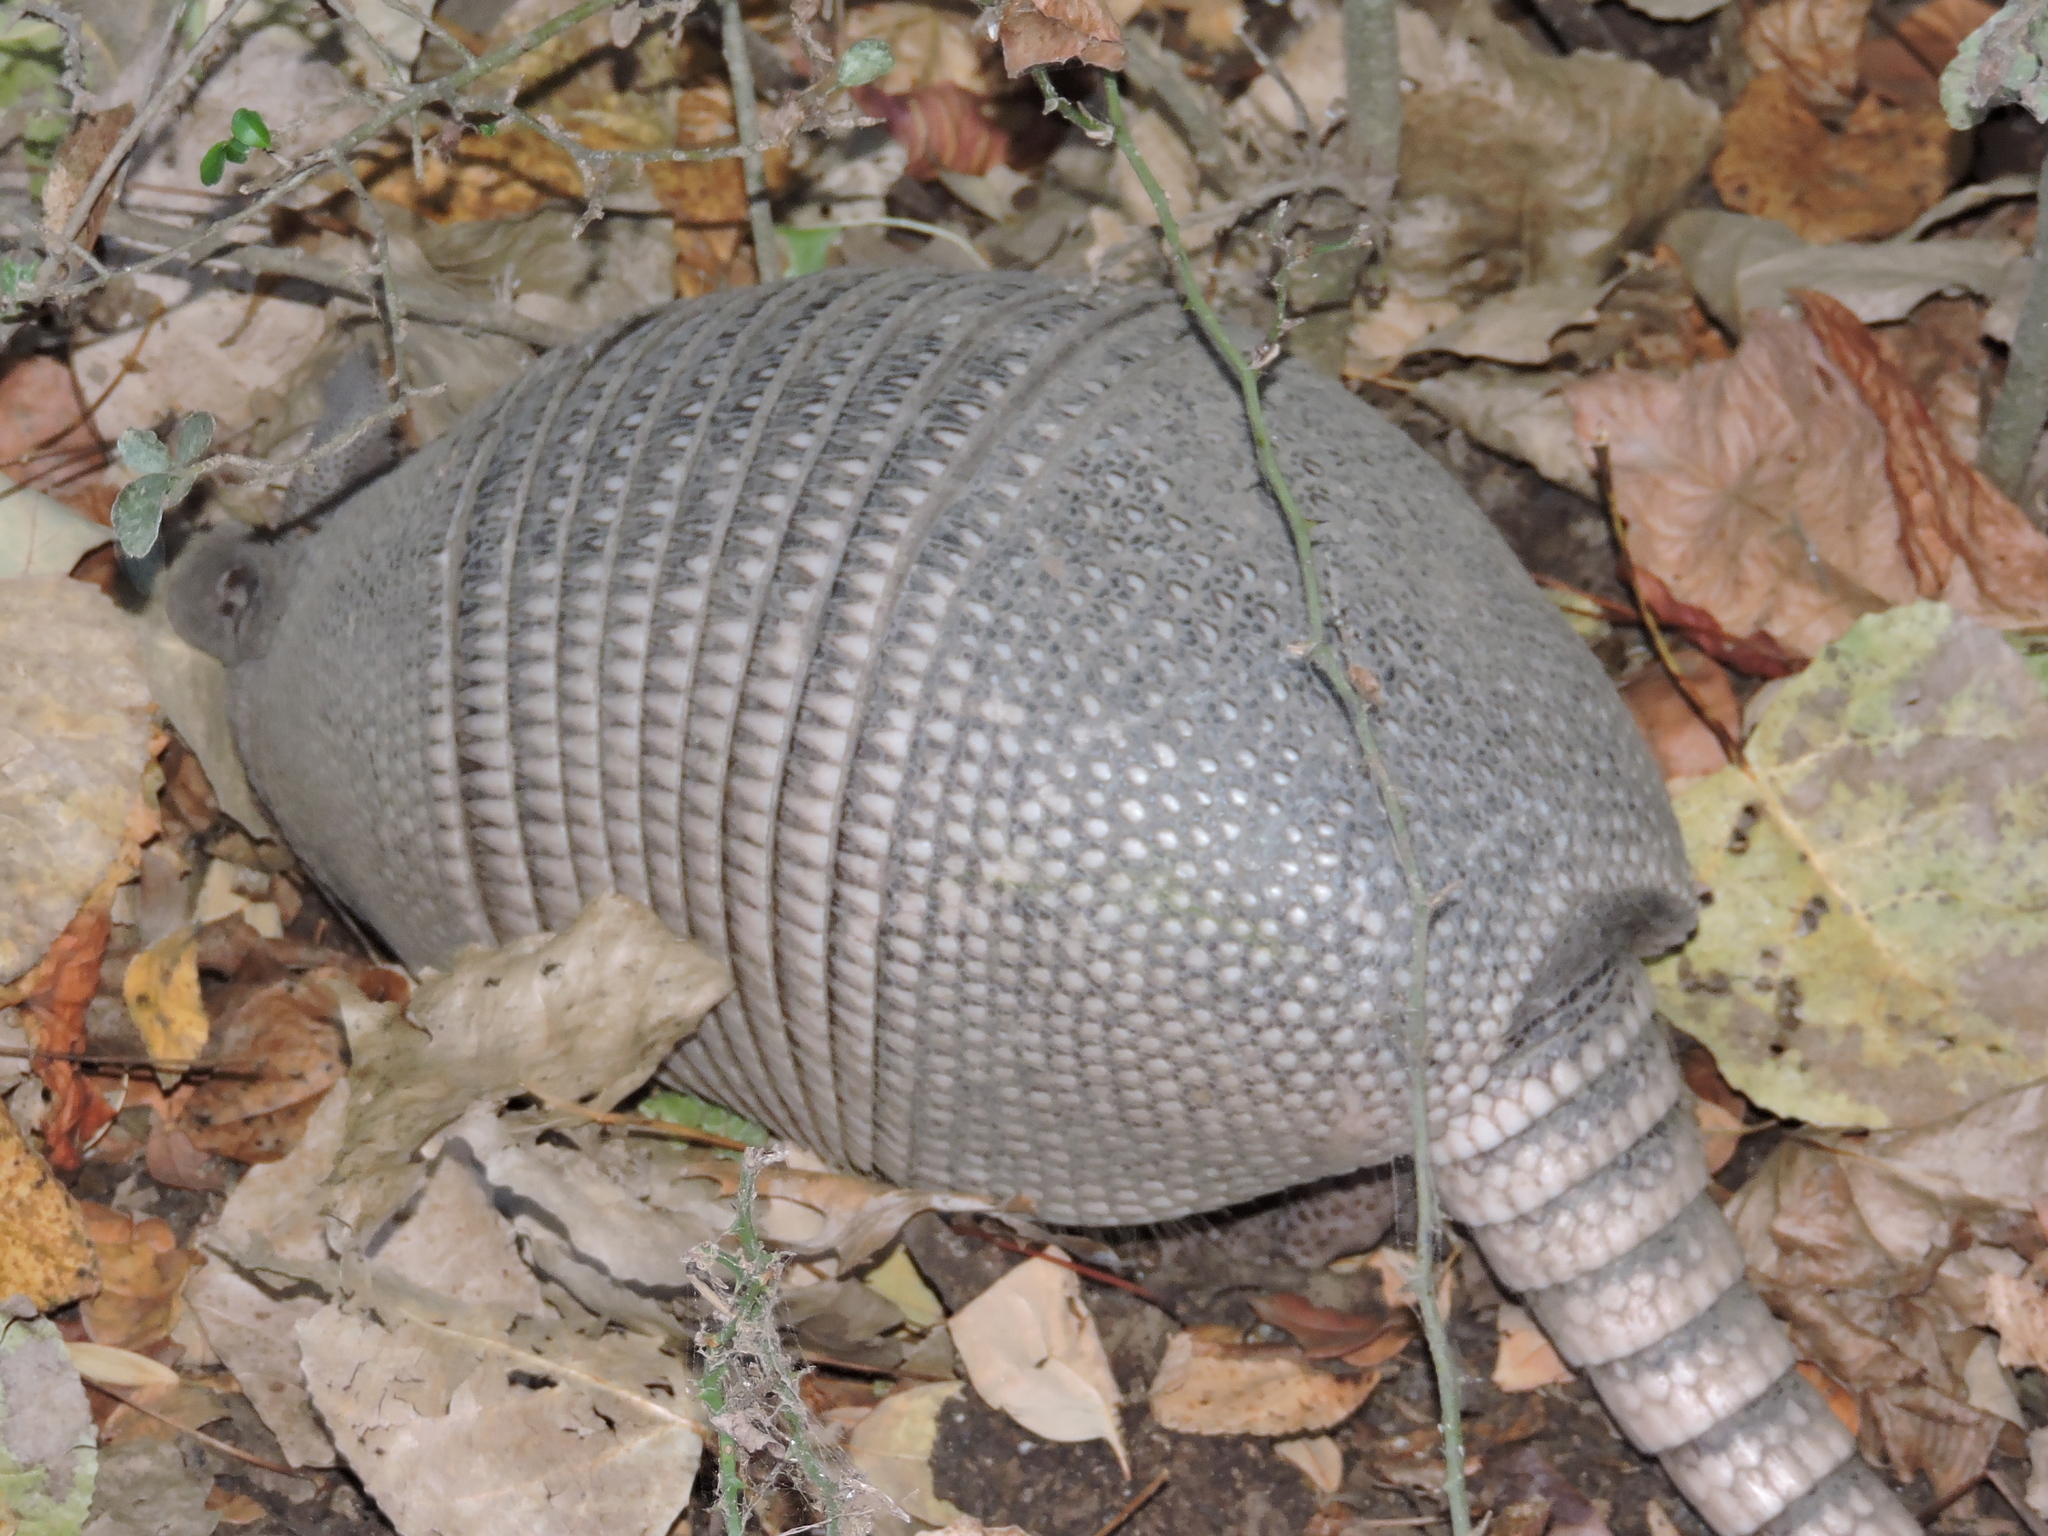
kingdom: Animalia
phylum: Chordata
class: Mammalia
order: Cingulata
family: Dasypodidae
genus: Dasypus
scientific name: Dasypus novemcinctus
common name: Nine-banded armadillo
